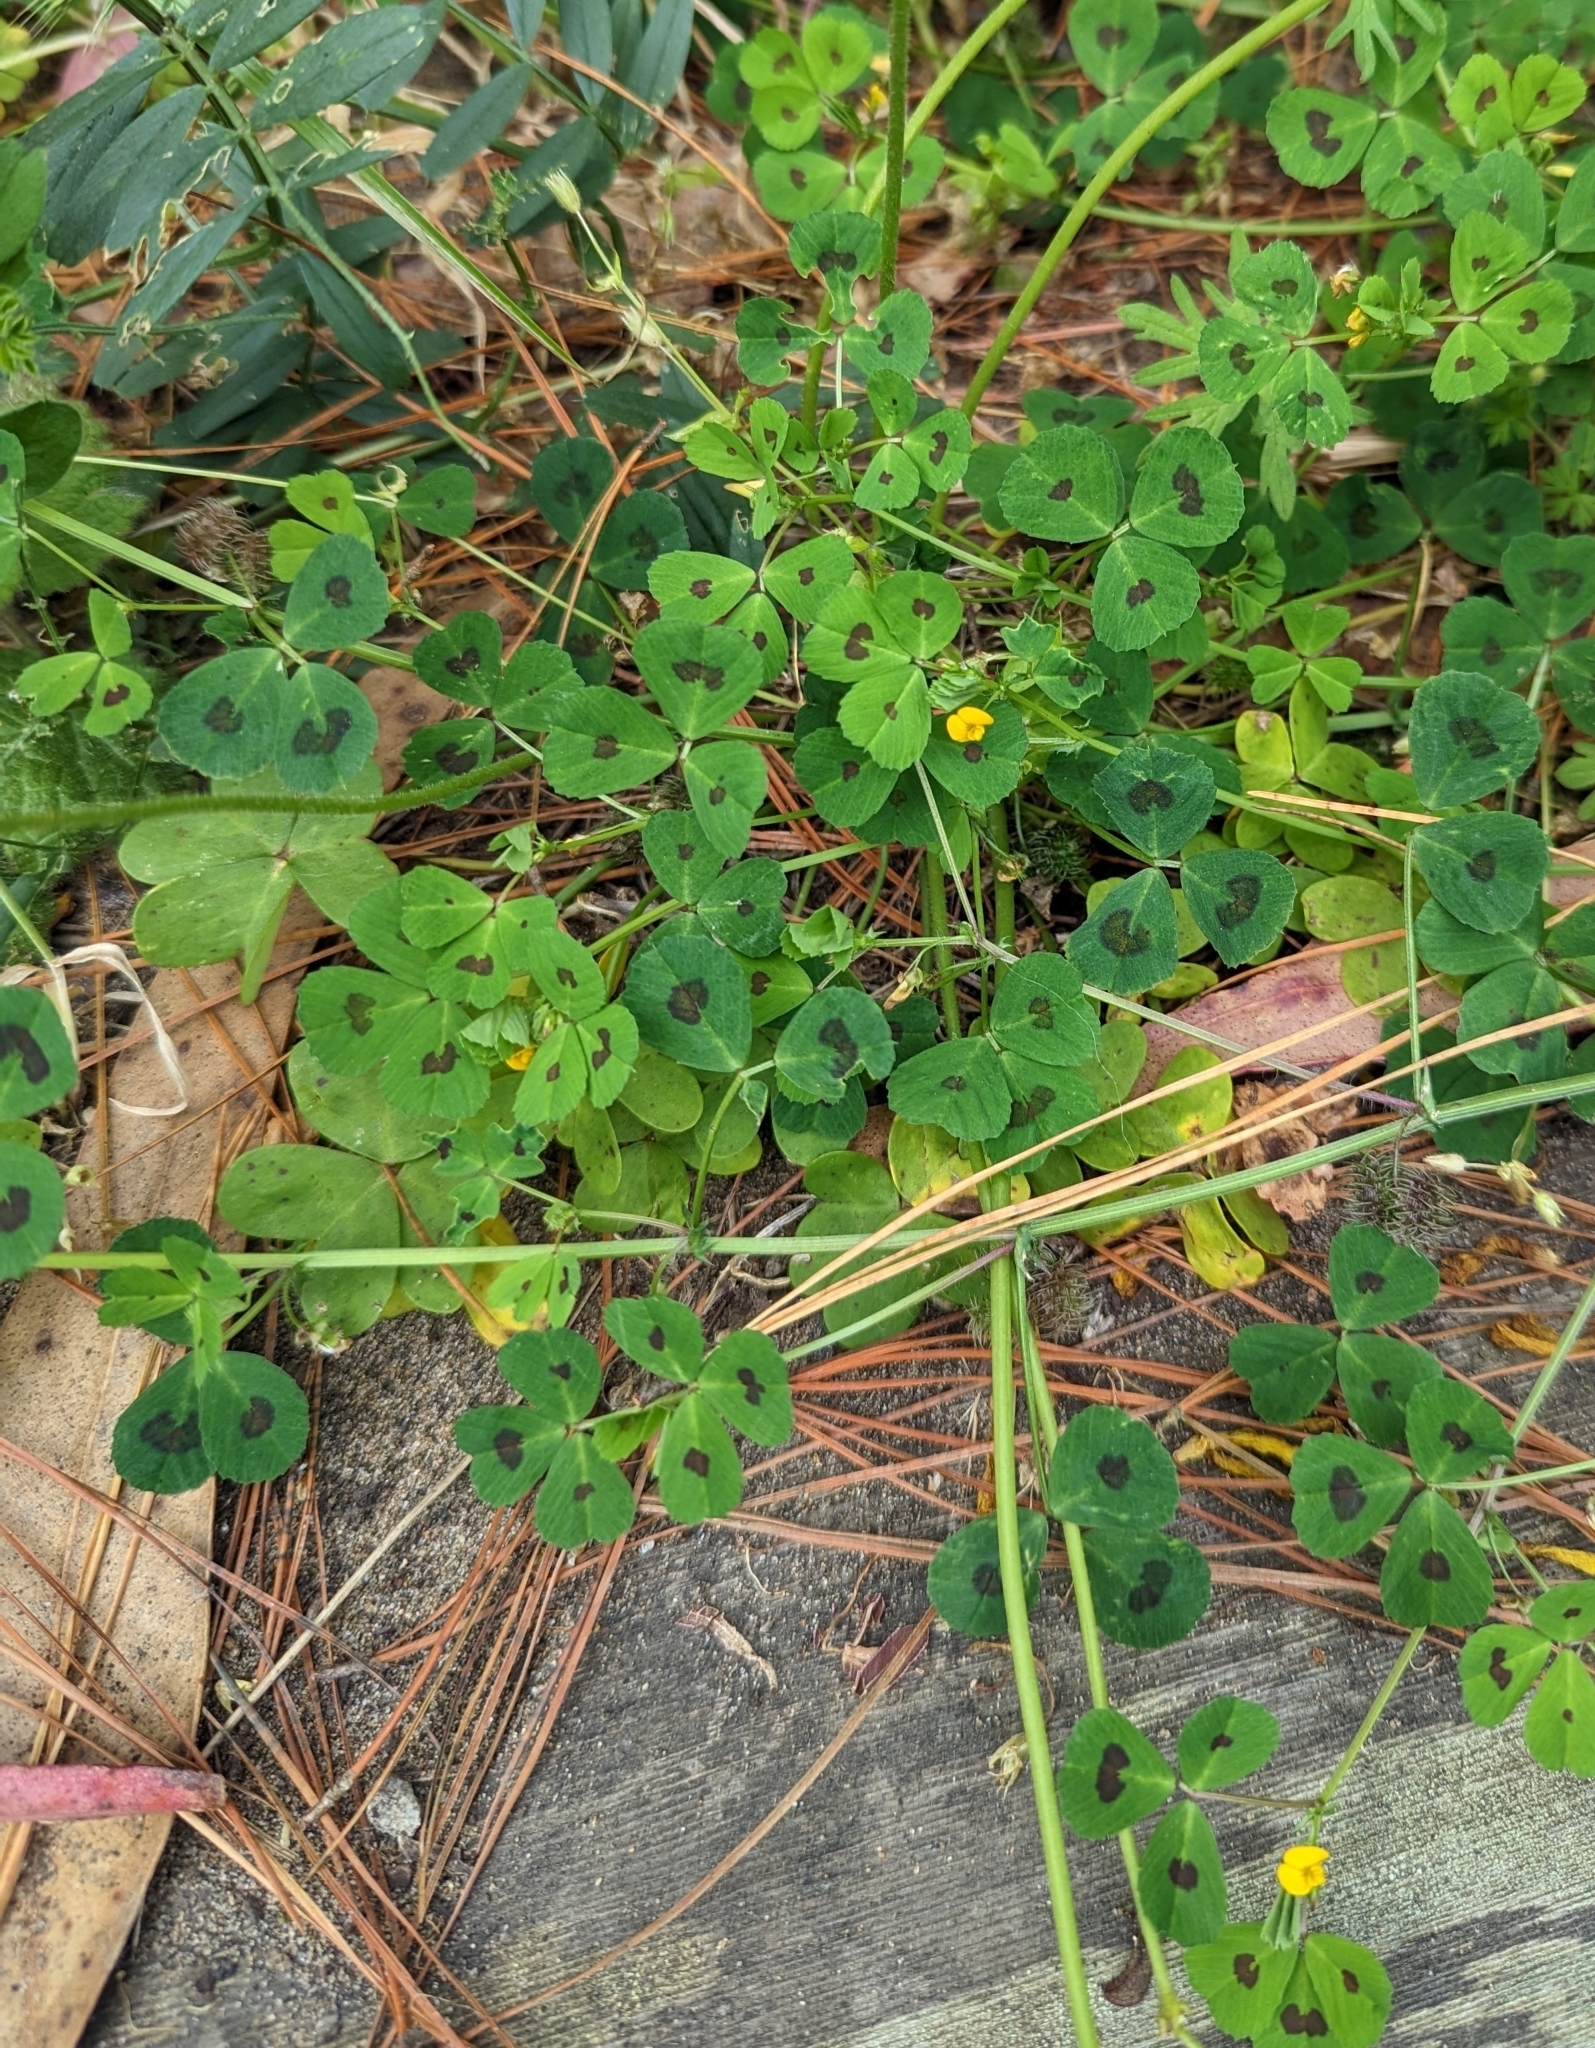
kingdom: Plantae
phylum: Tracheophyta
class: Magnoliopsida
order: Fabales
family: Fabaceae
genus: Medicago
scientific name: Medicago arabica
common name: Spotted medick
